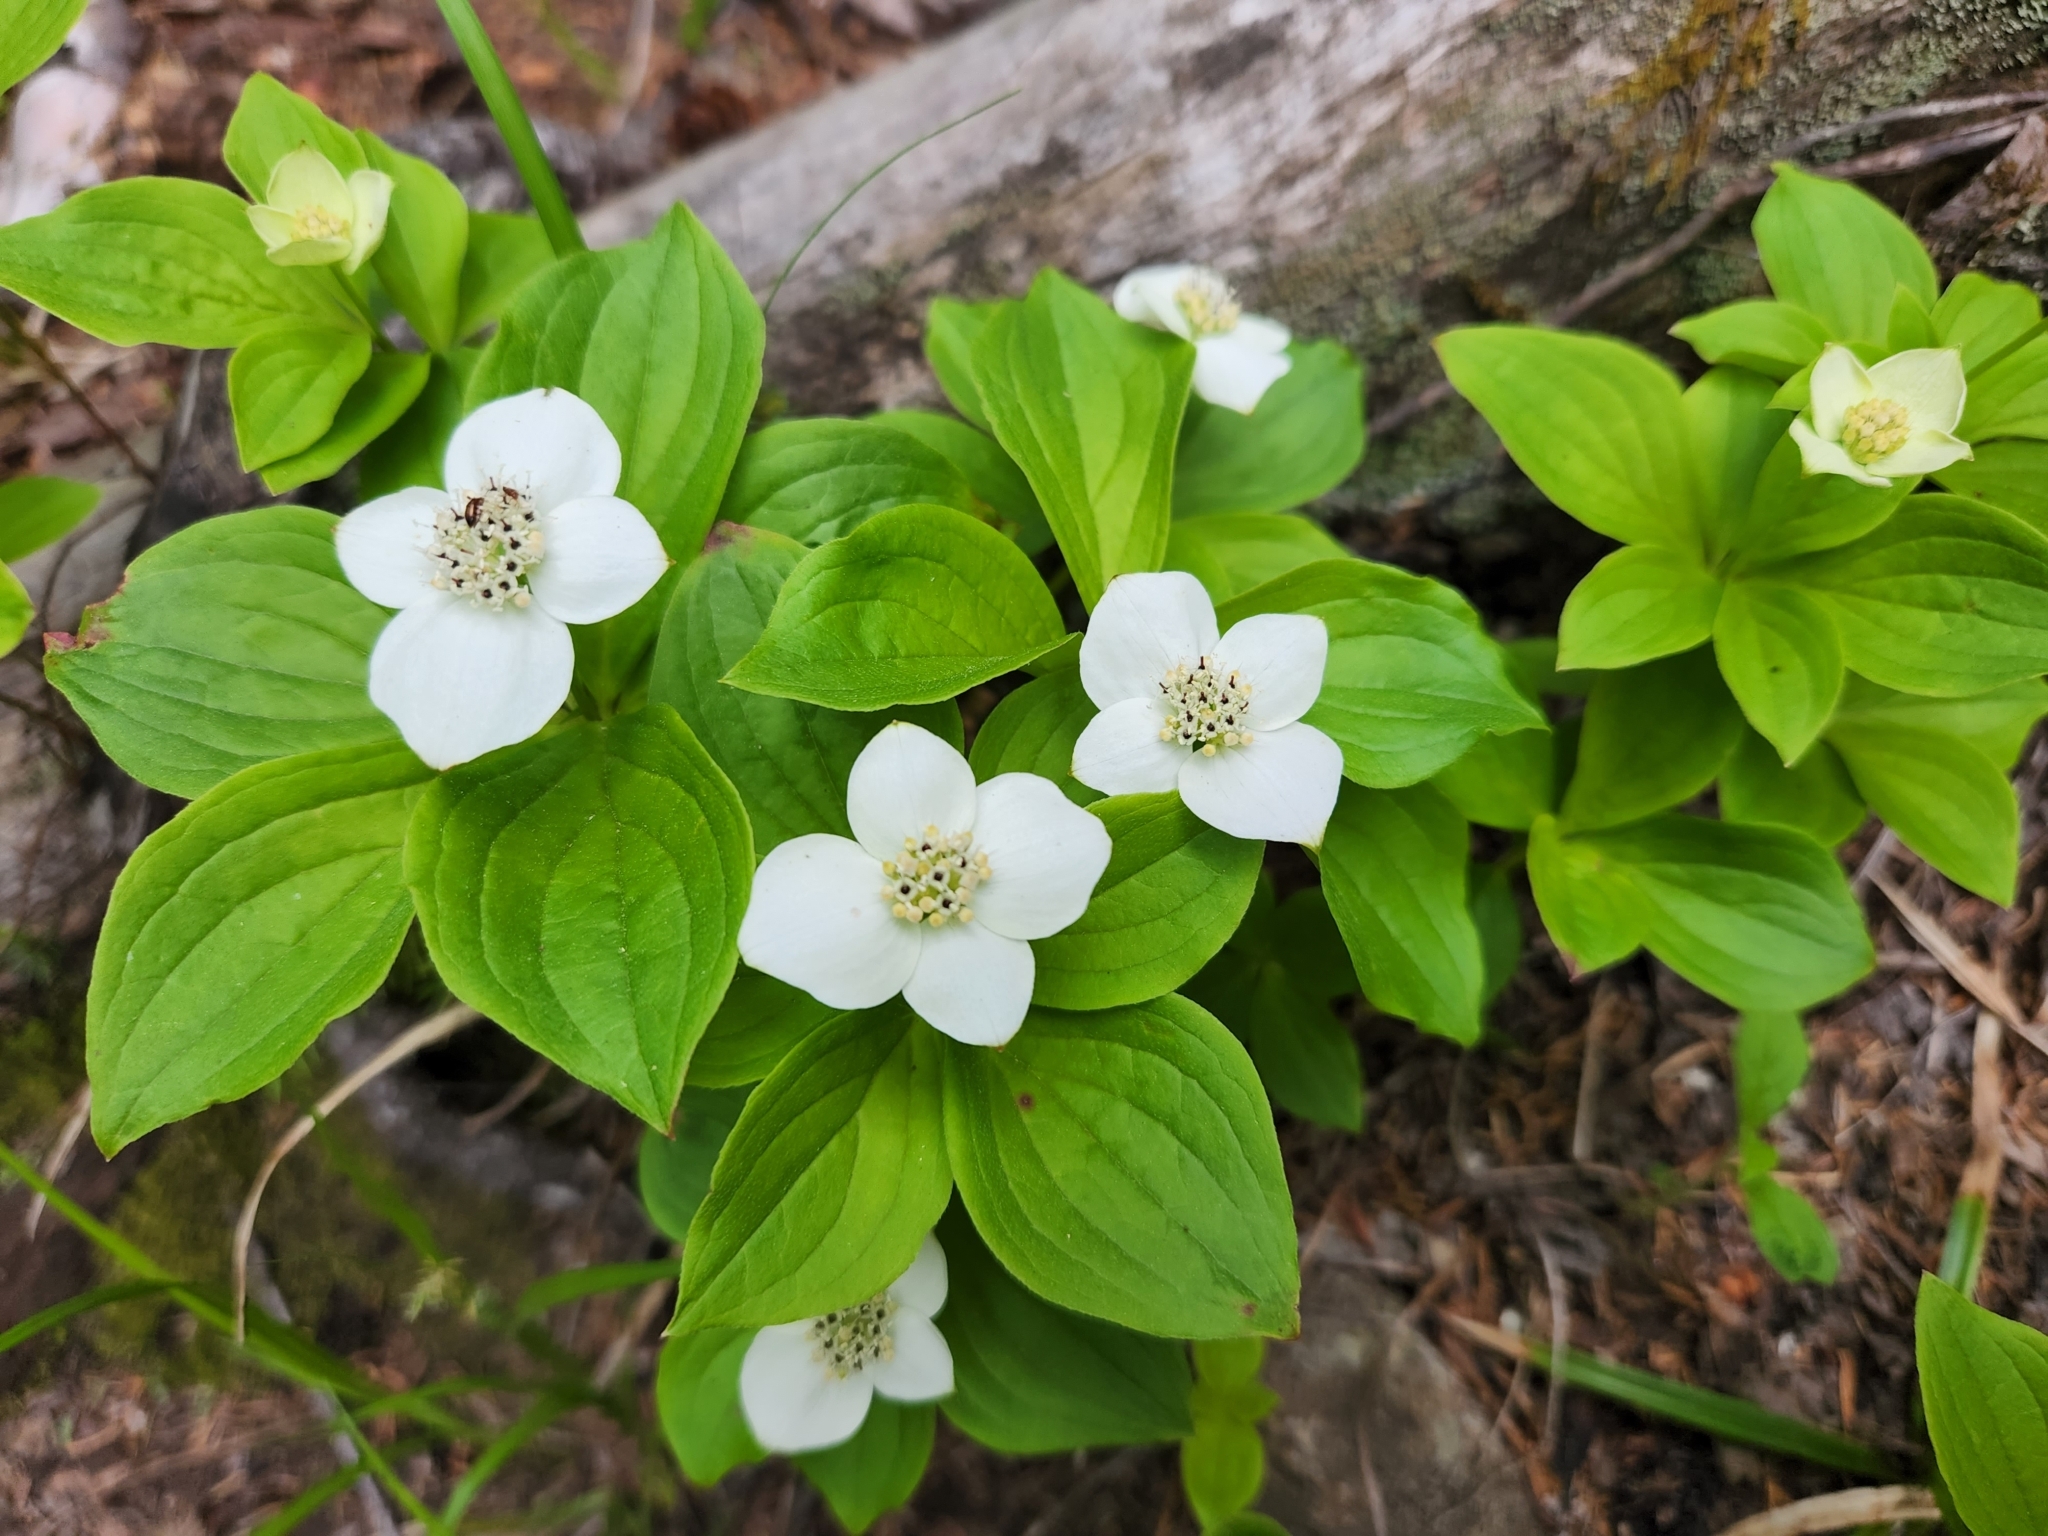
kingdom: Plantae
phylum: Tracheophyta
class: Magnoliopsida
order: Cornales
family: Cornaceae
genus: Cornus
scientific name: Cornus canadensis
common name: Creeping dogwood
